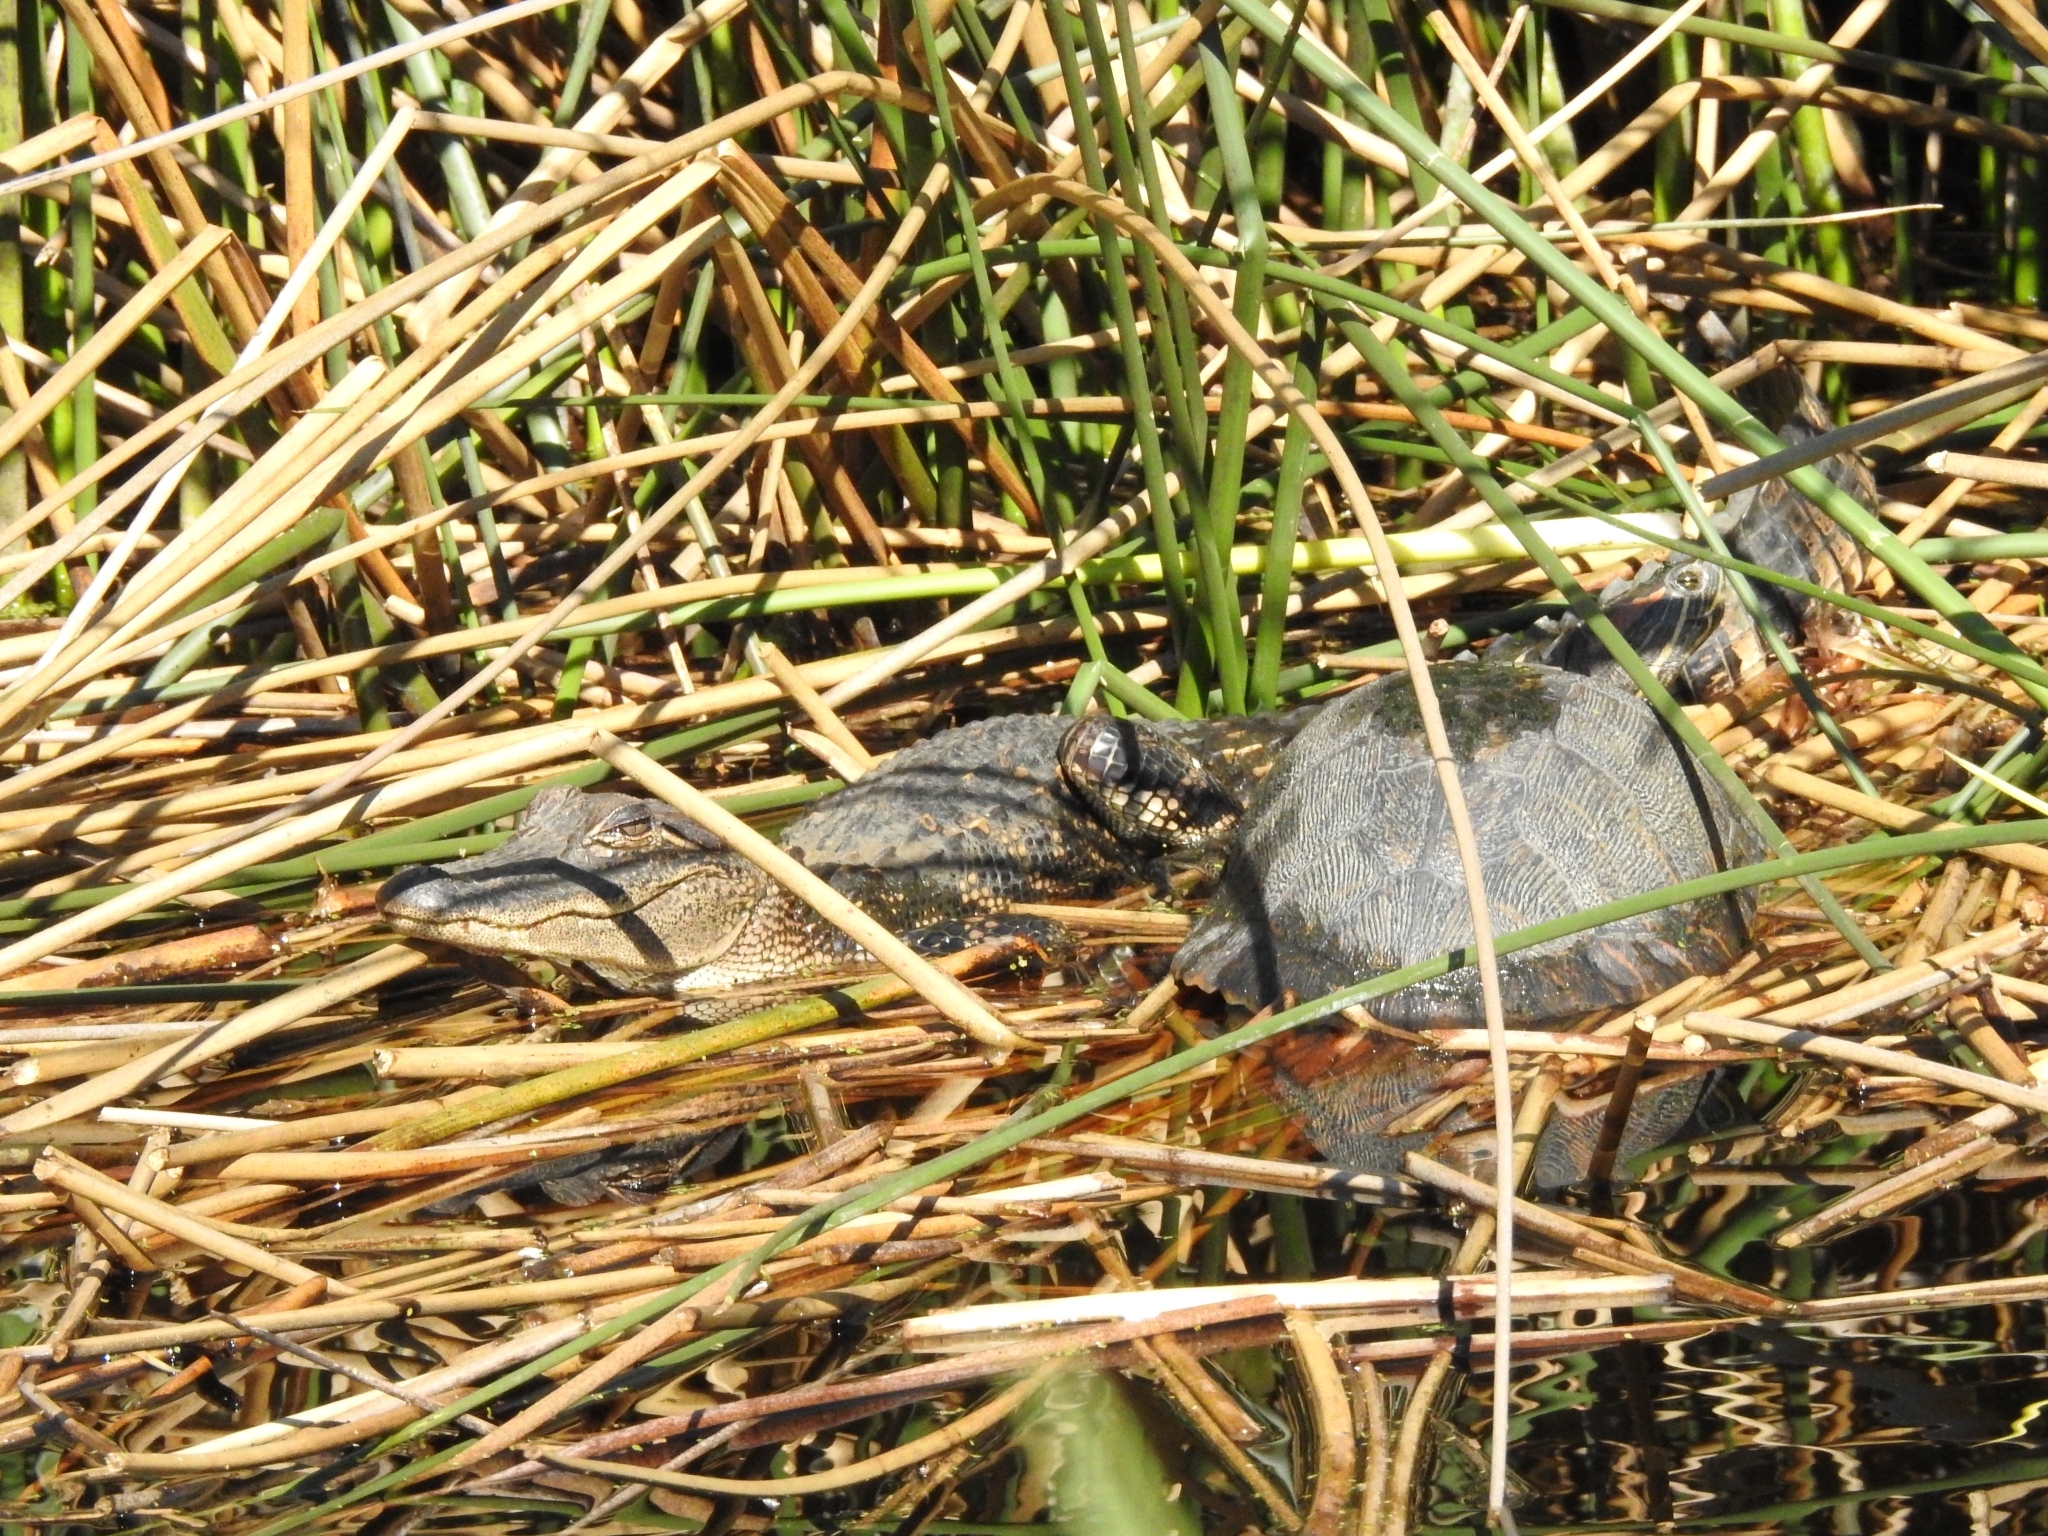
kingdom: Animalia
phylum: Chordata
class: Crocodylia
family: Alligatoridae
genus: Alligator
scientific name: Alligator mississippiensis
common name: American alligator
